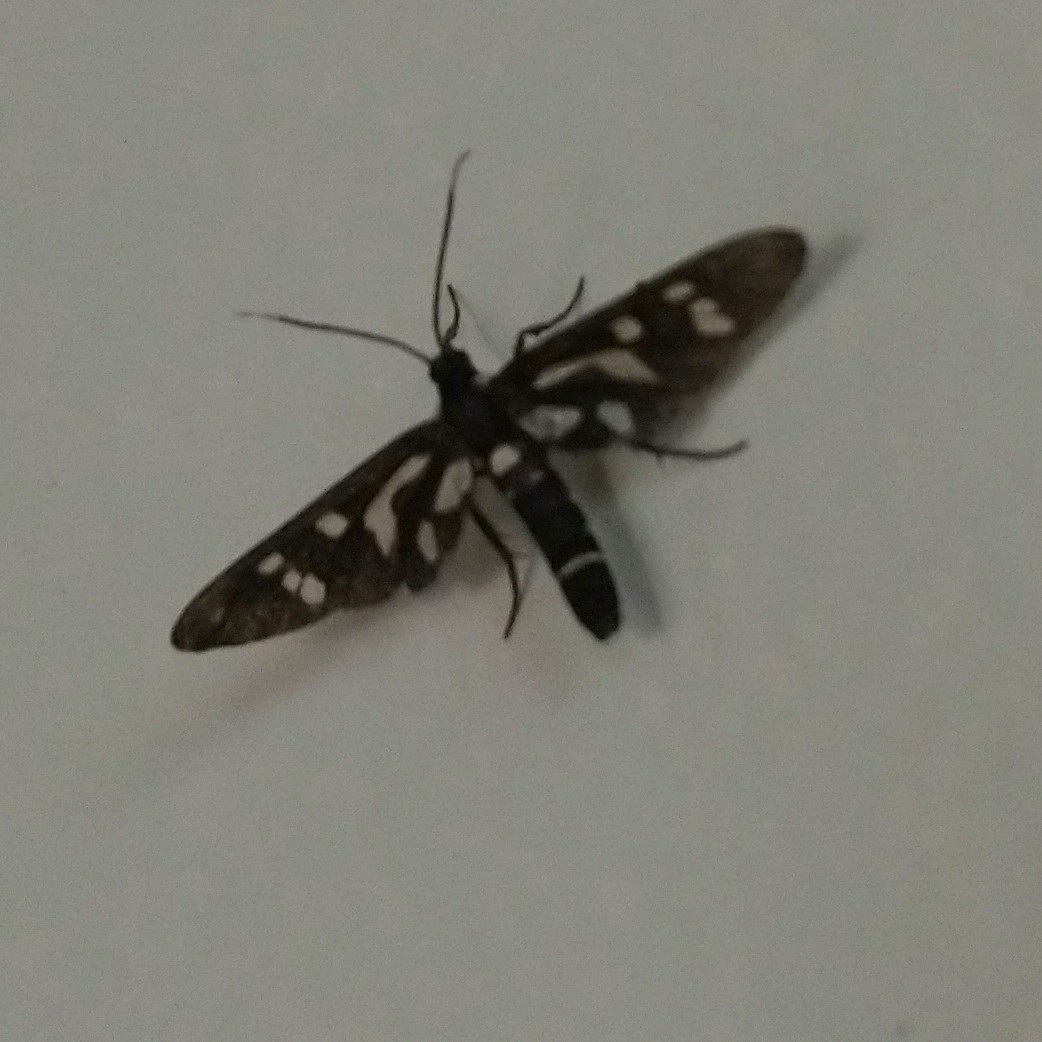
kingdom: Animalia
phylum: Arthropoda
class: Insecta
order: Lepidoptera
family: Erebidae
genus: Ceryx
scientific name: Ceryx toxotes
